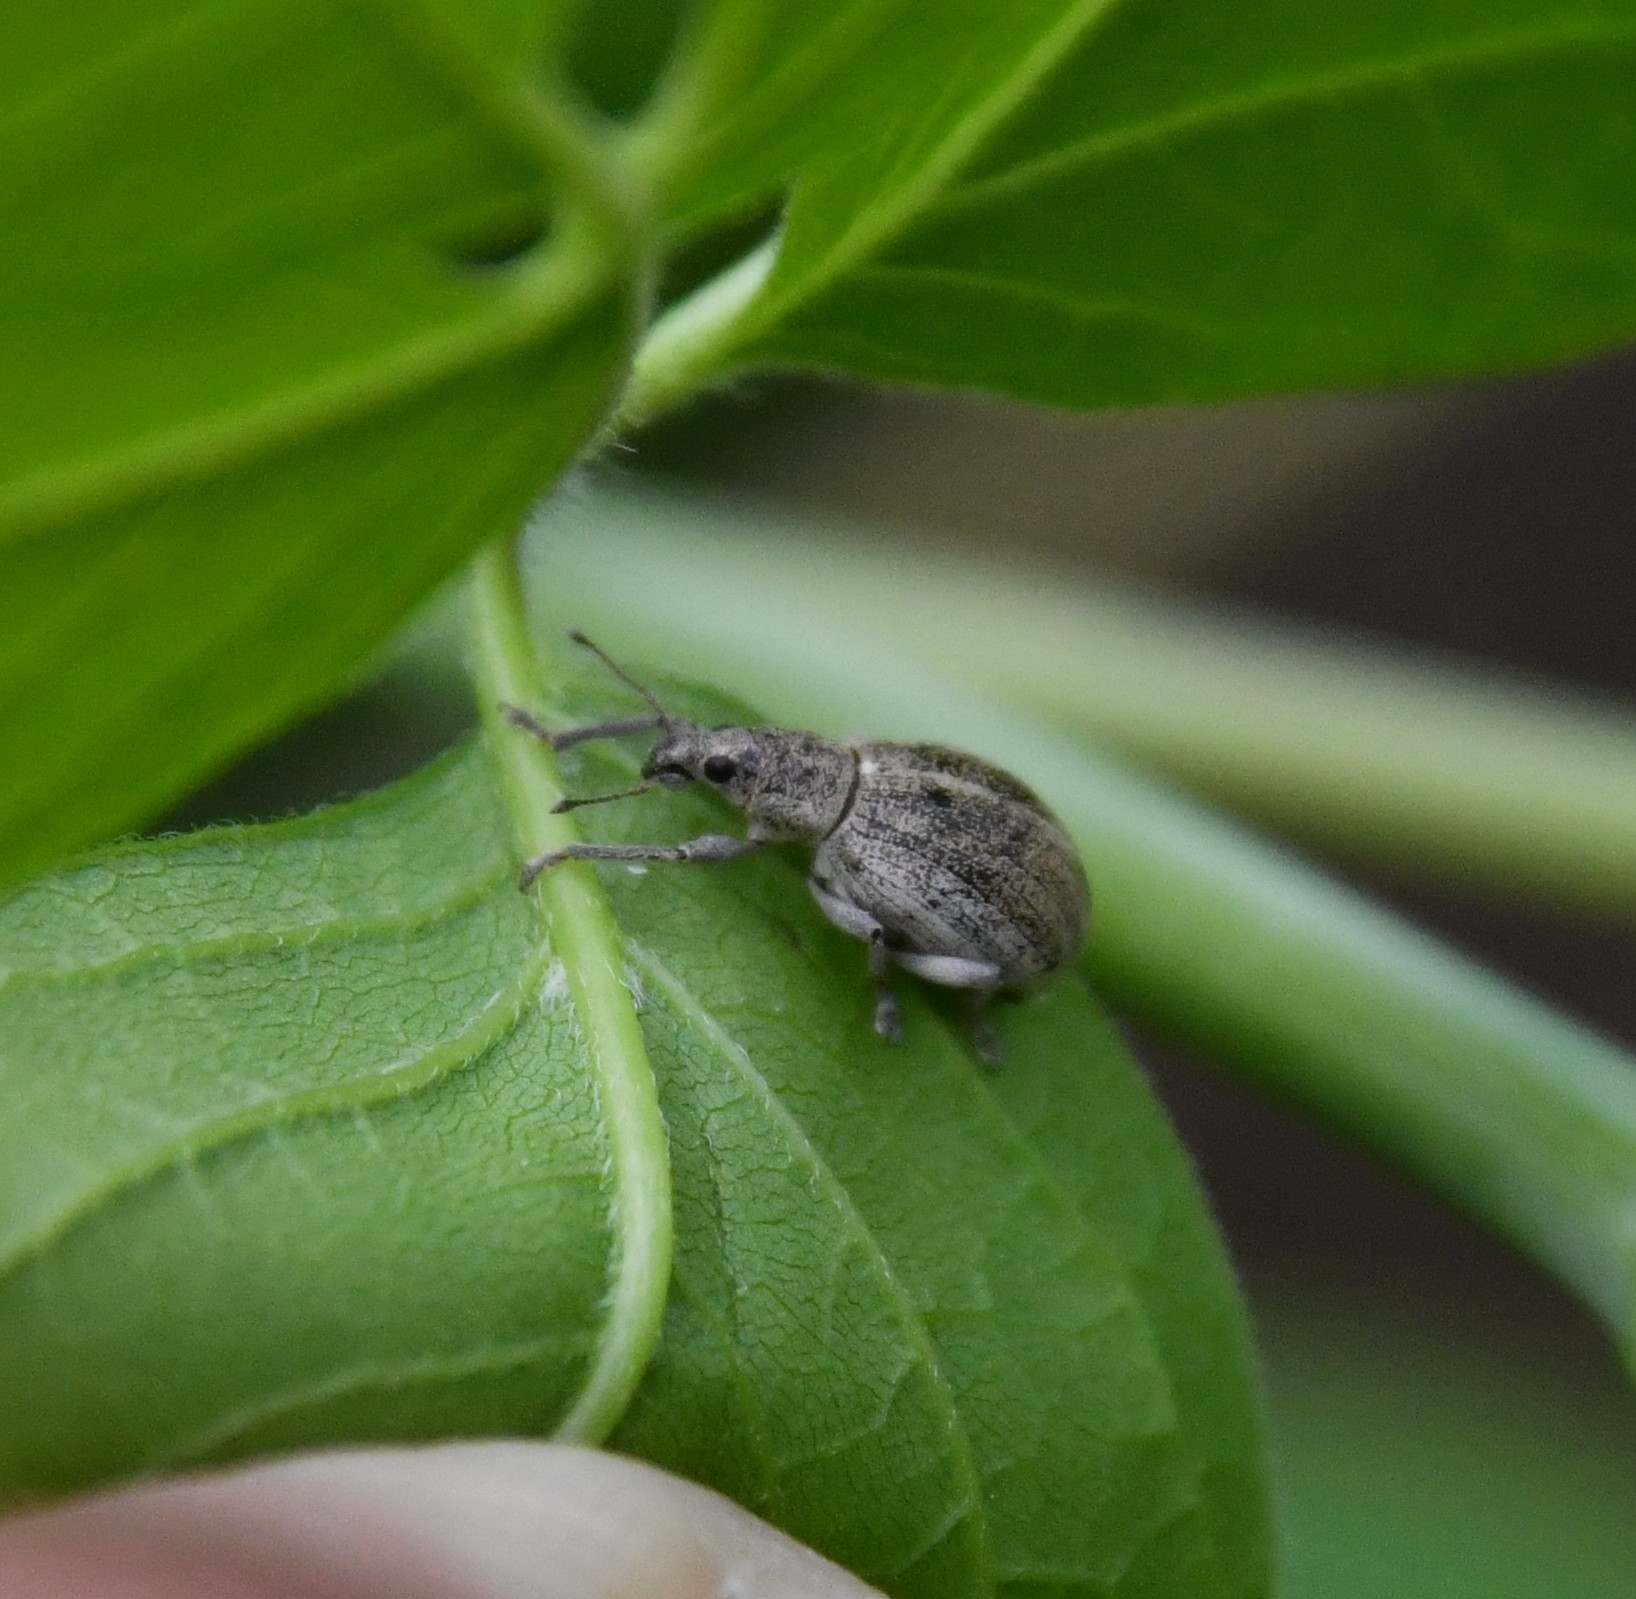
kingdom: Animalia
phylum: Arthropoda
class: Insecta
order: Coleoptera
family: Curculionidae
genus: Sciaphobus
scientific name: Sciaphobus squalidus
